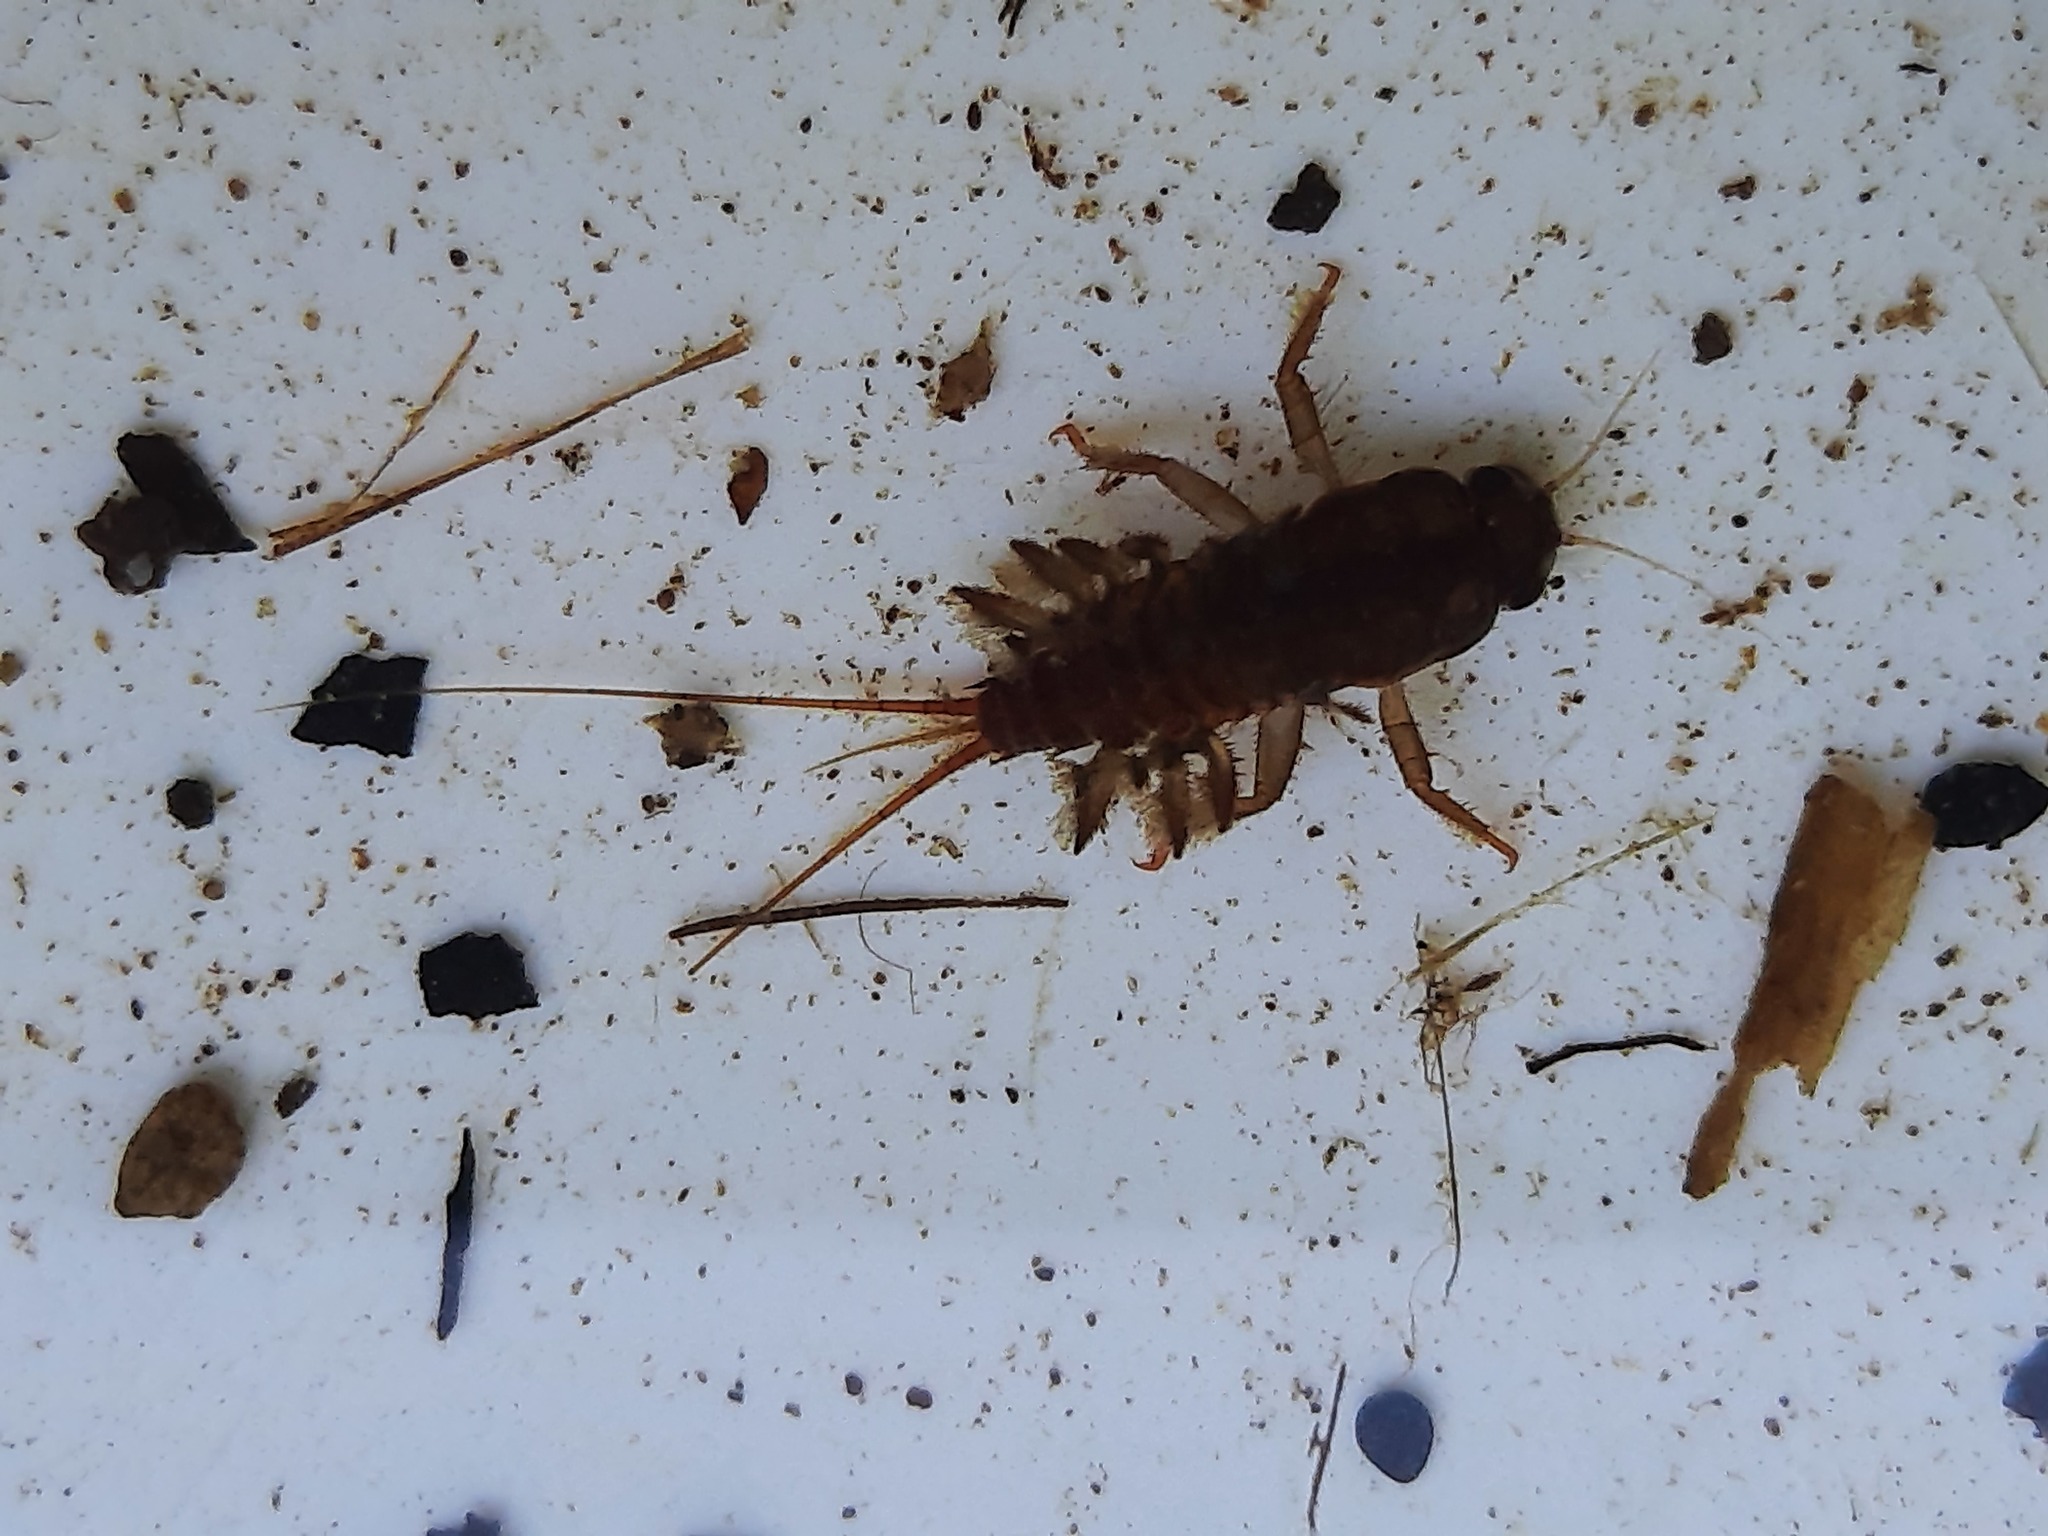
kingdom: Animalia
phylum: Arthropoda
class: Insecta
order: Ephemeroptera
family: Coloburiscidae
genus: Coloburiscus
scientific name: Coloburiscus humeralis
